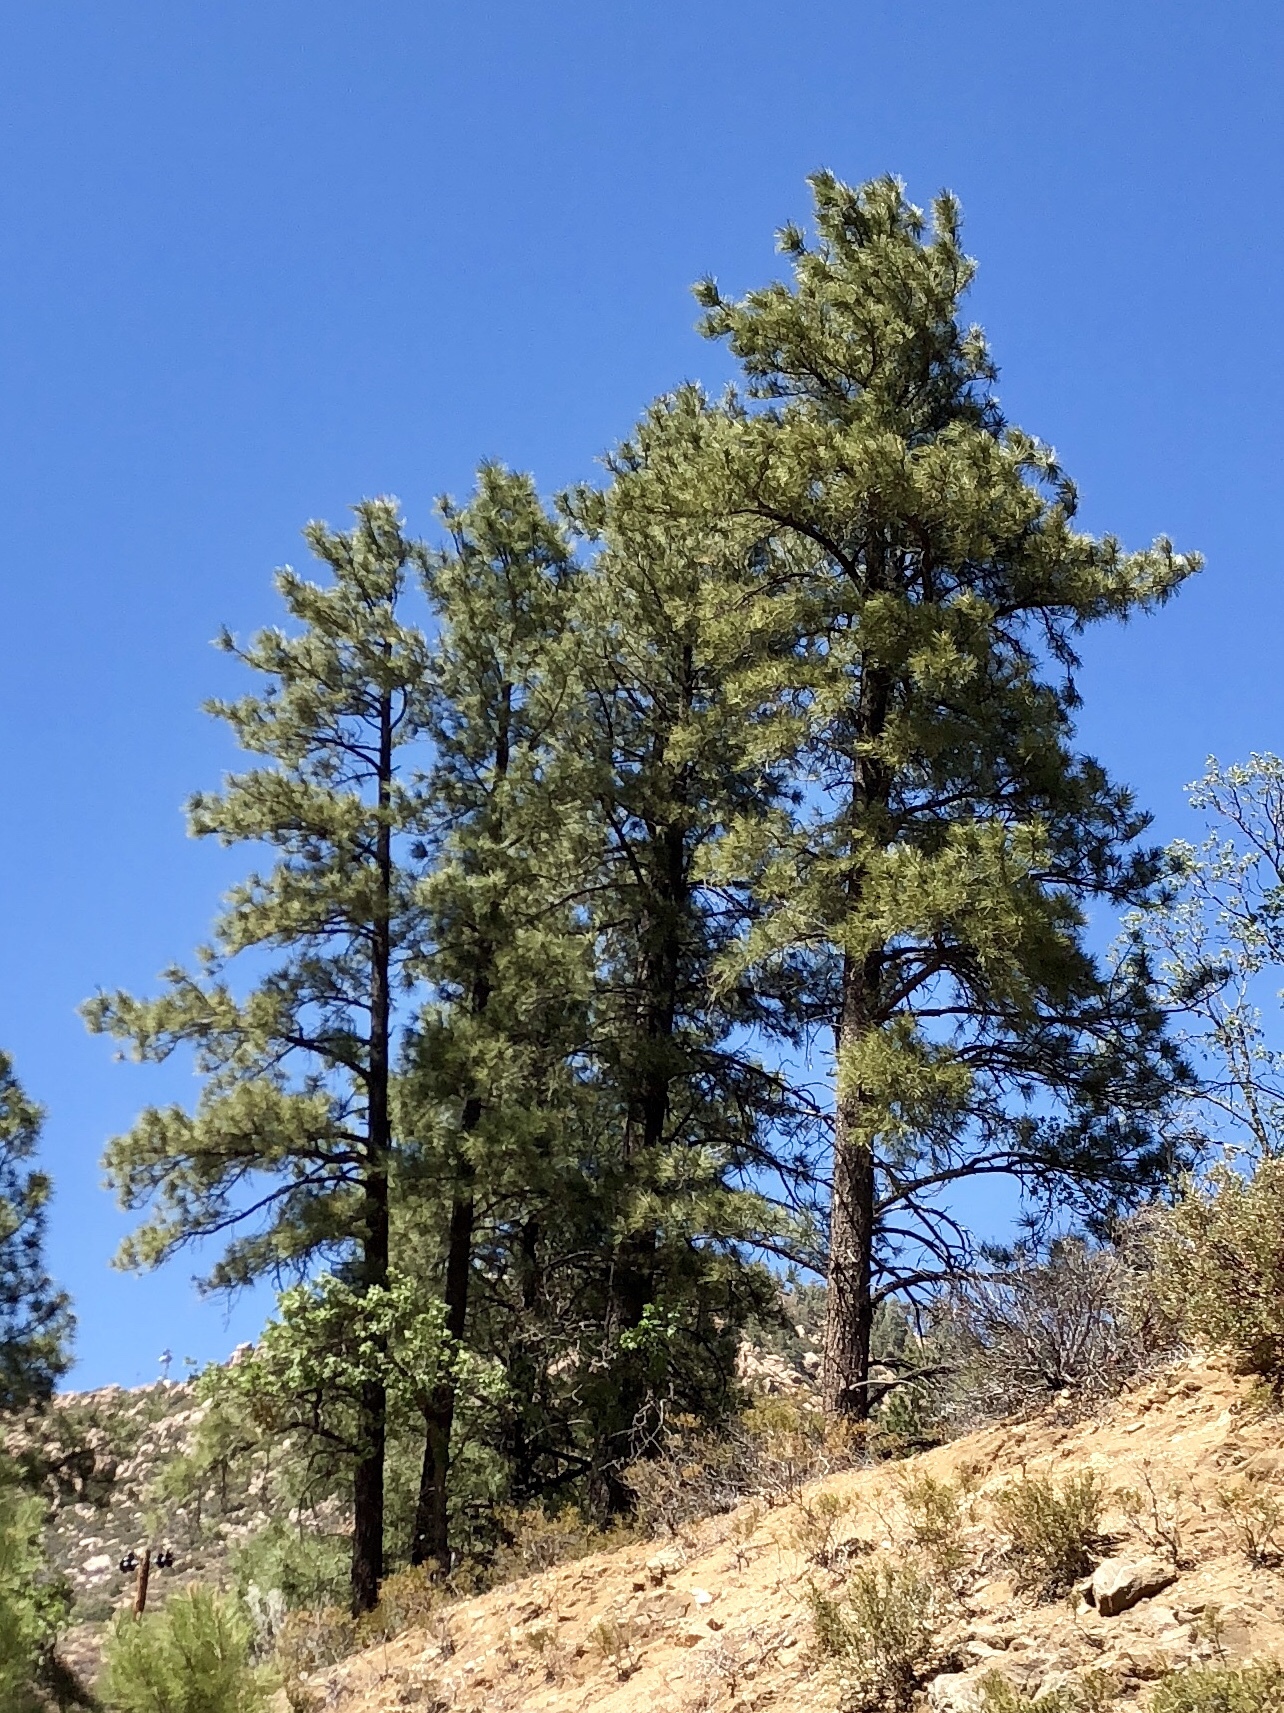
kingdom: Plantae
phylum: Tracheophyta
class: Pinopsida
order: Pinales
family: Pinaceae
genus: Pinus
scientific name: Pinus ponderosa
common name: Western yellow-pine
